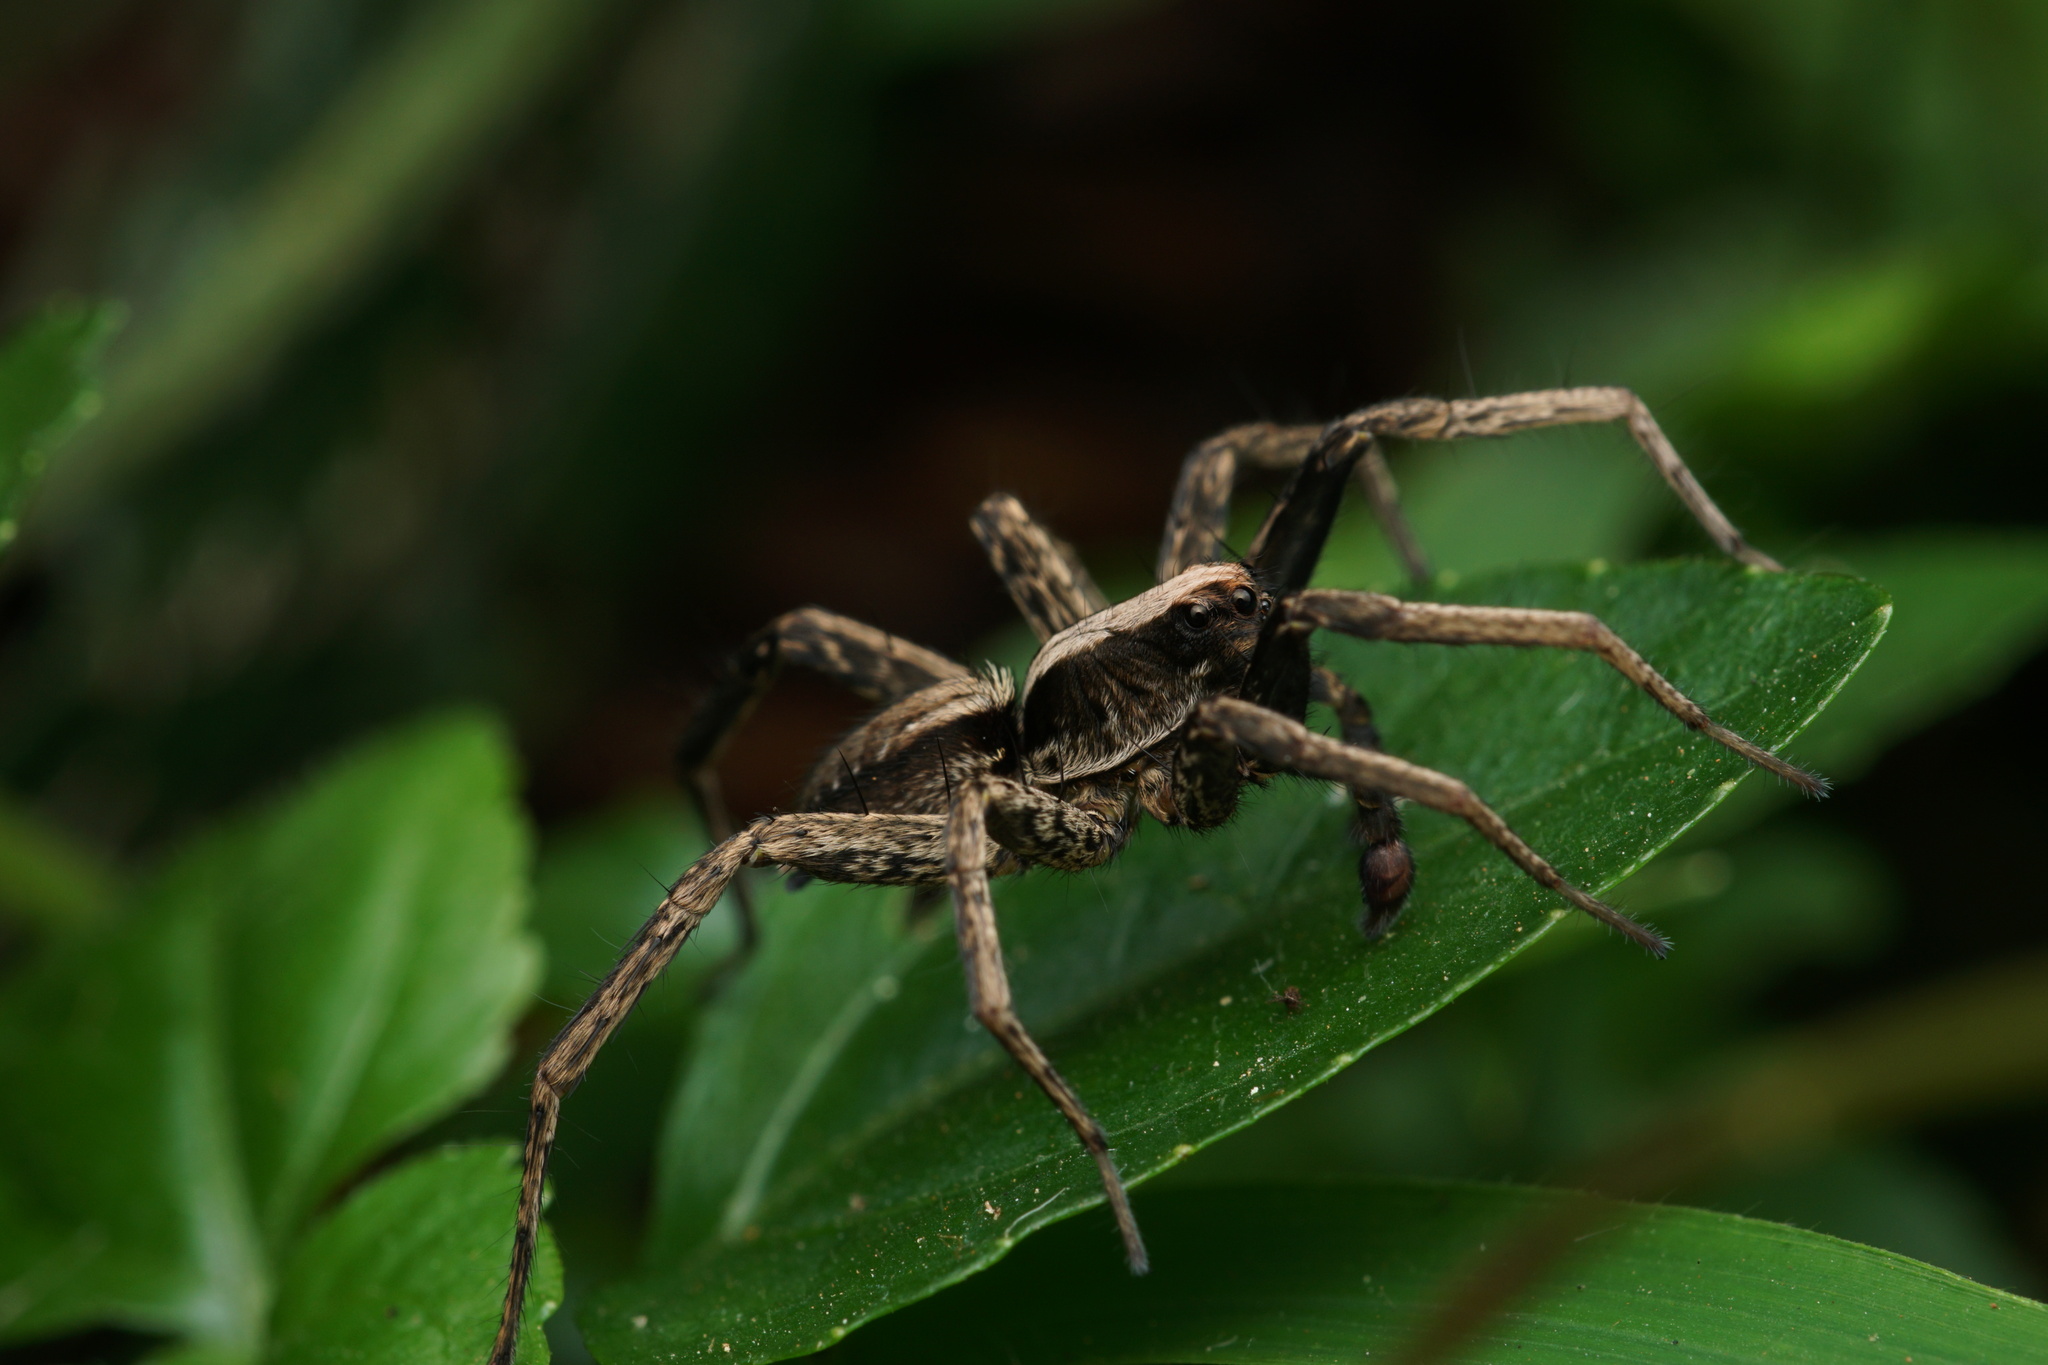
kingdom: Animalia
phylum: Arthropoda
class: Arachnida
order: Araneae
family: Lycosidae
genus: Hogna
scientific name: Hogna gumia
